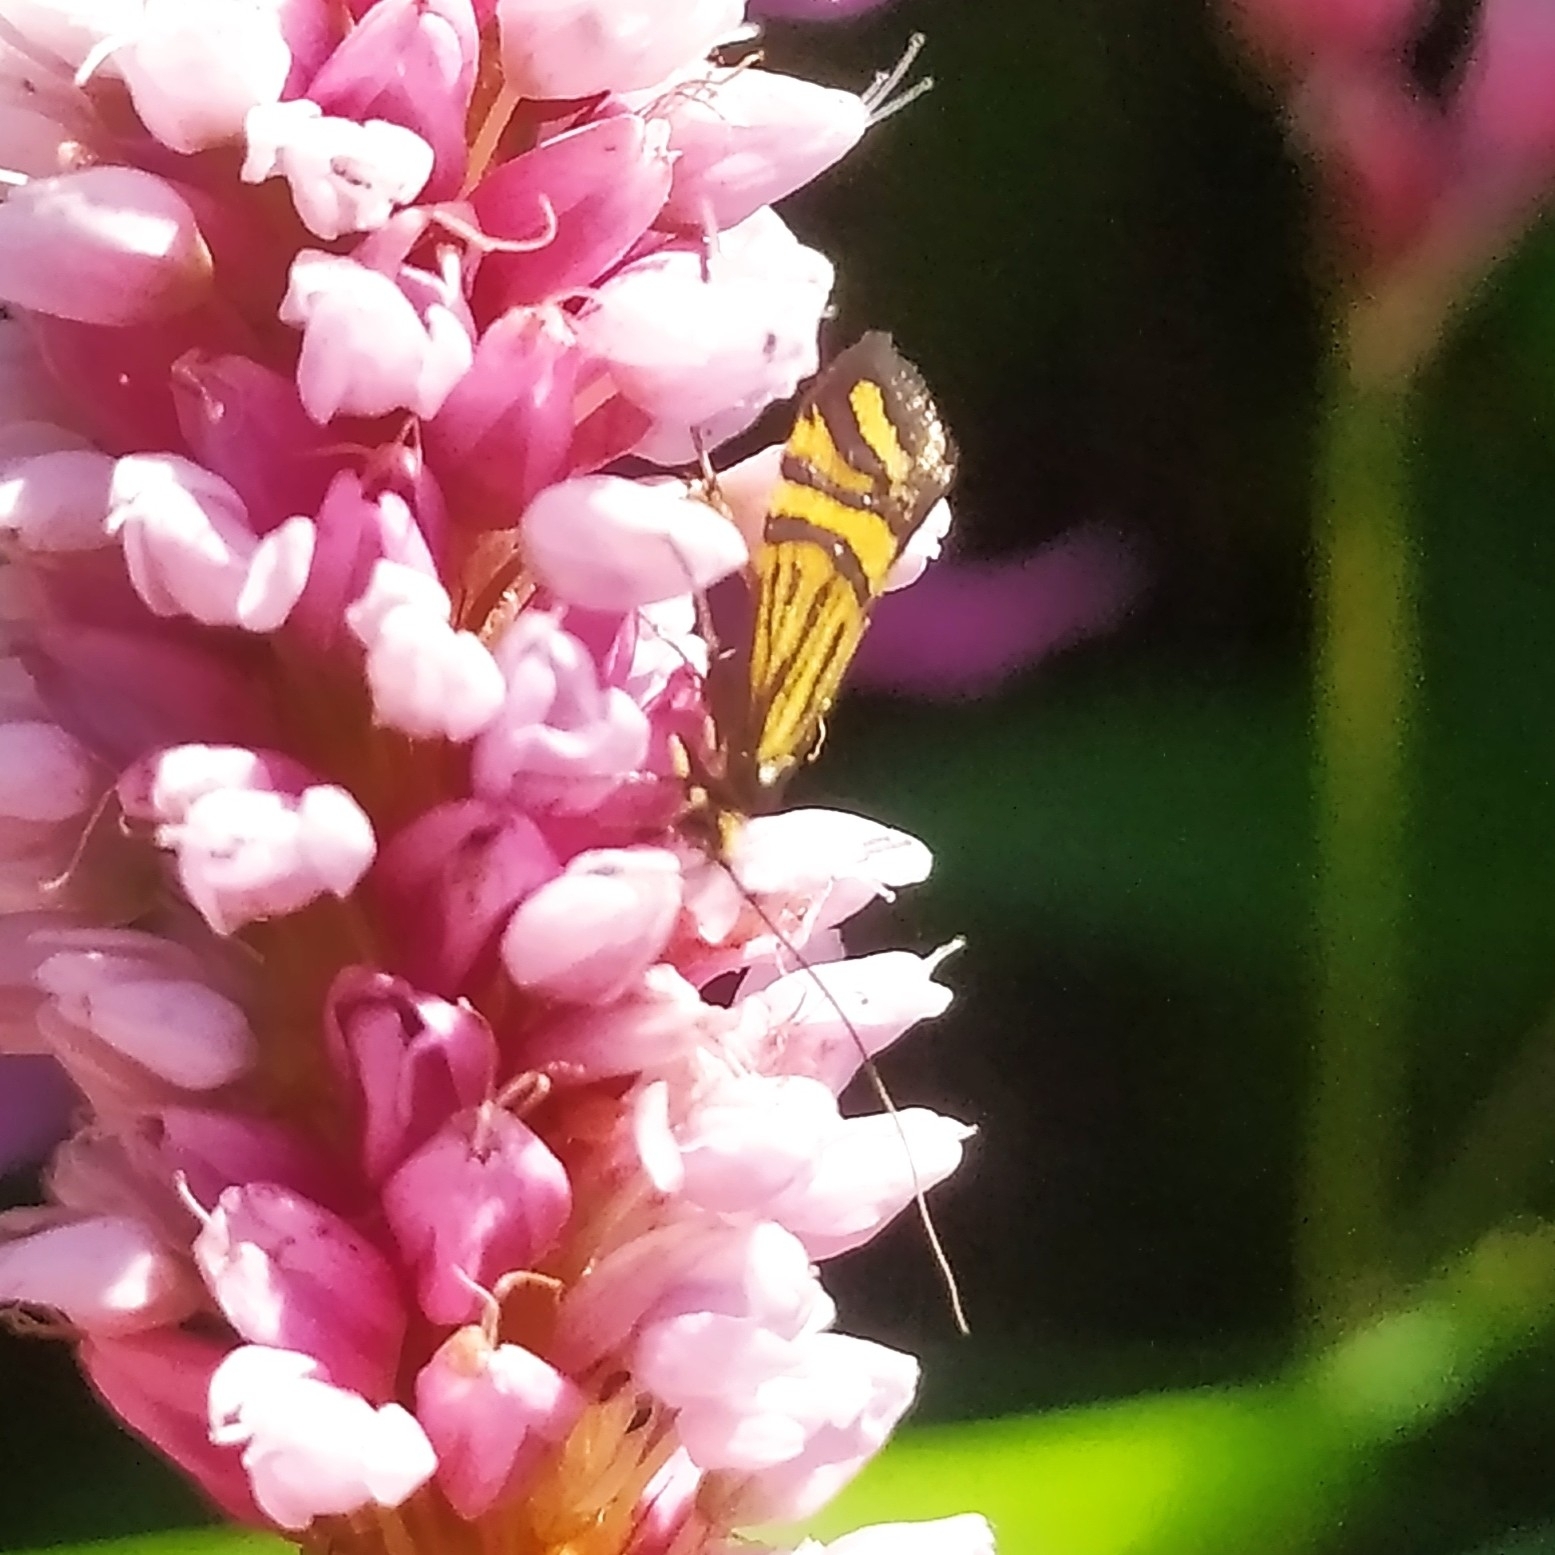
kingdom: Animalia
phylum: Arthropoda
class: Insecta
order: Lepidoptera
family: Adelidae
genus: Nemophora
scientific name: Nemophora ochsenheimerella
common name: Ochsenheimer’s long-horn
